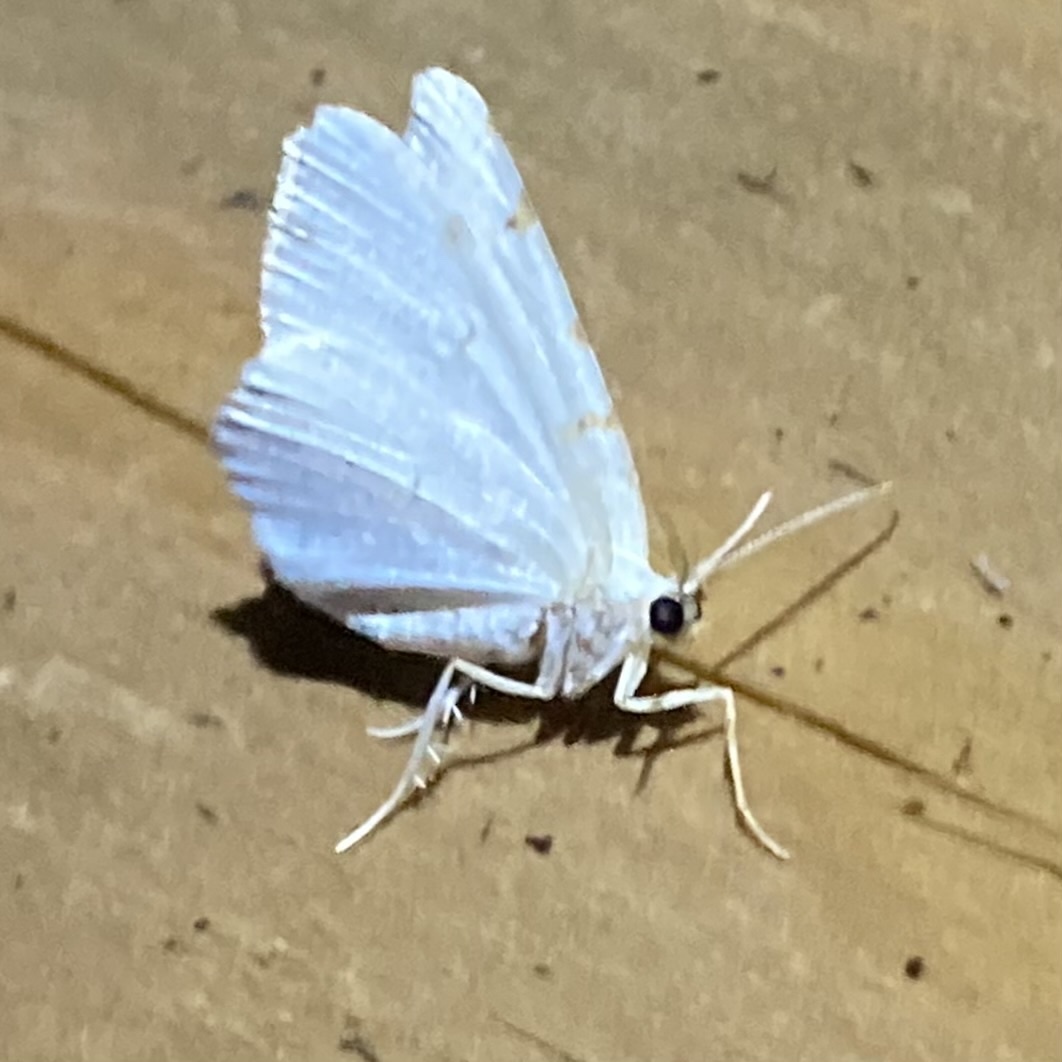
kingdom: Animalia
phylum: Arthropoda
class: Insecta
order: Lepidoptera
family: Geometridae
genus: Macaria
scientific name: Macaria pustularia
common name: Lesser maple spanworm moth
